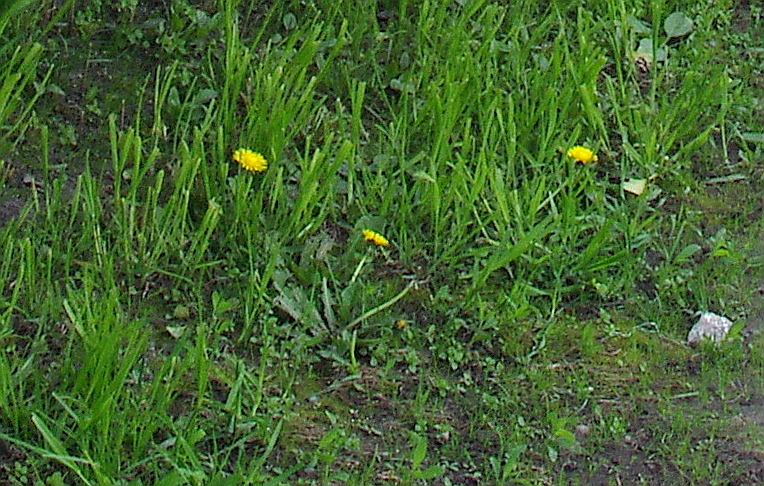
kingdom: Plantae
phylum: Tracheophyta
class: Magnoliopsida
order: Asterales
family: Asteraceae
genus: Taraxacum
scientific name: Taraxacum officinale
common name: Common dandelion
